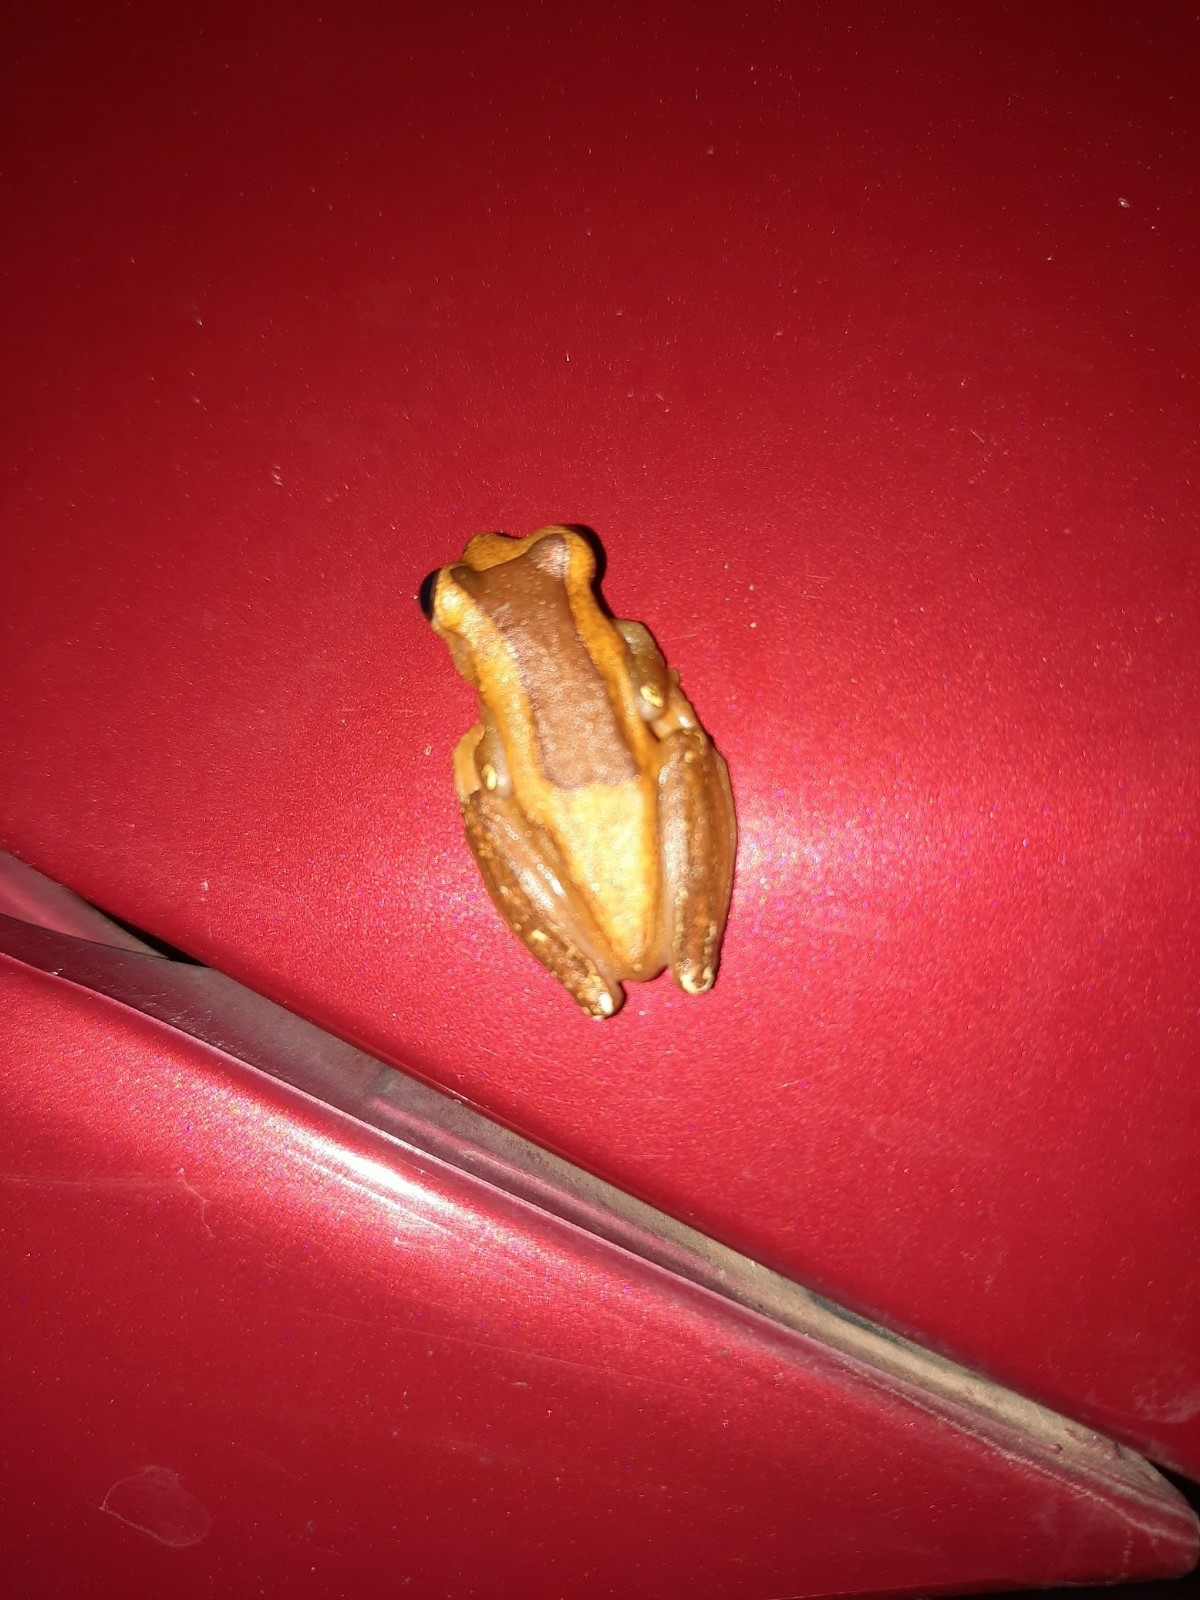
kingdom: Animalia
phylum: Chordata
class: Amphibia
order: Anura
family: Hylidae
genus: Dendropsophus
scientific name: Dendropsophus elegans
